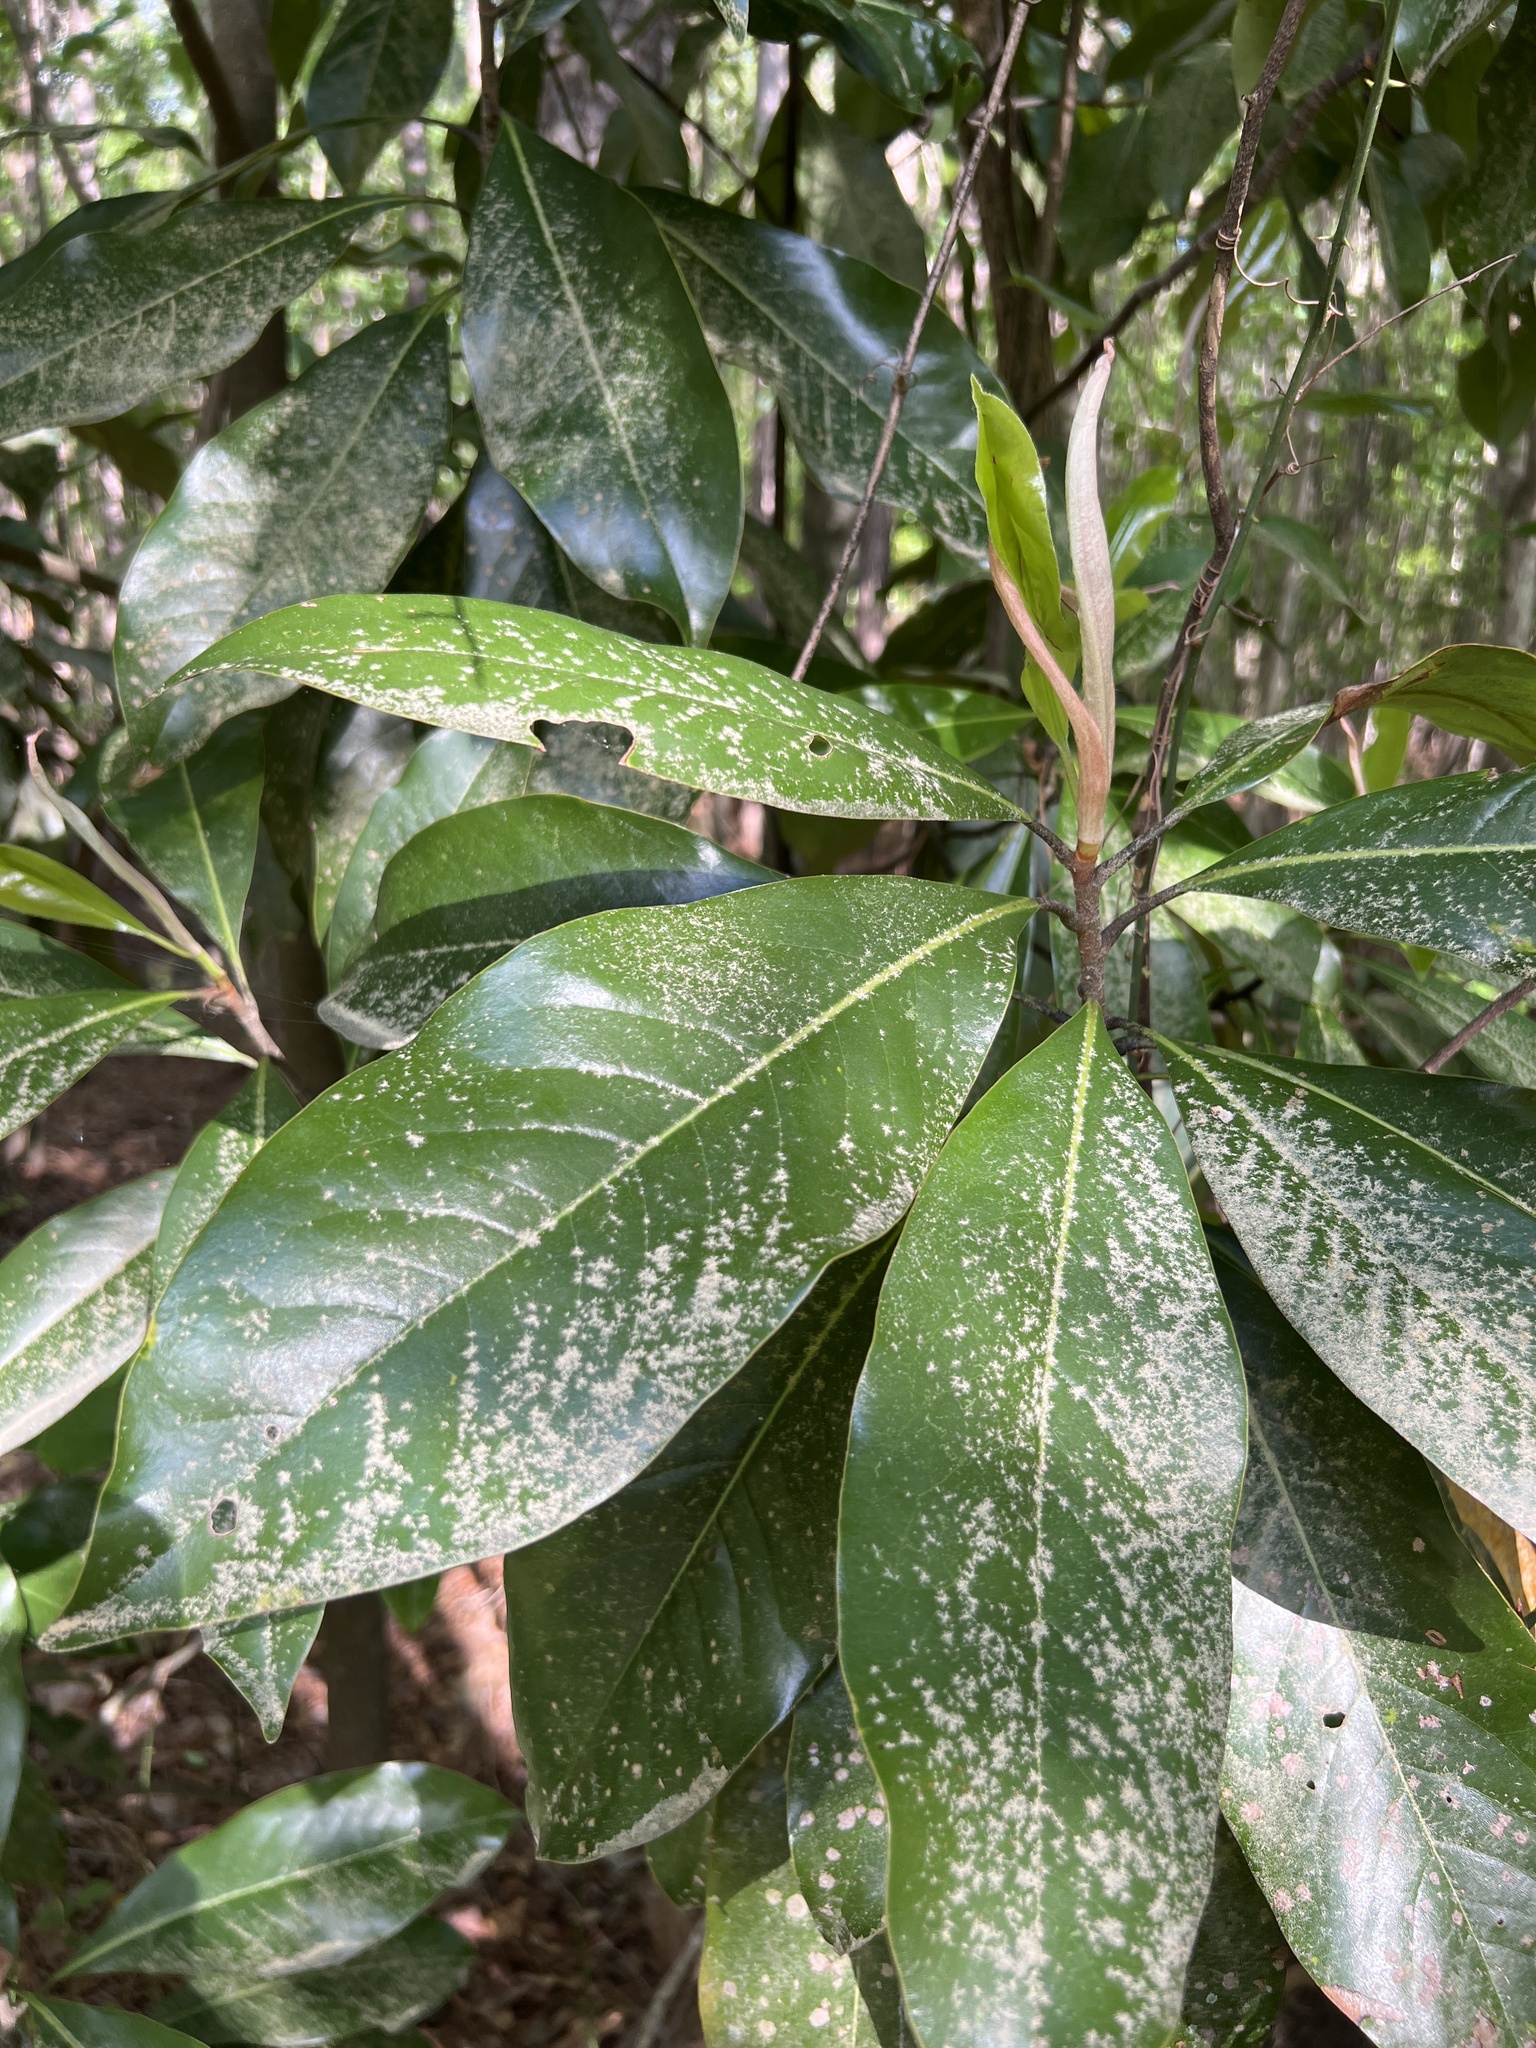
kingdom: Plantae
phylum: Tracheophyta
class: Magnoliopsida
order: Magnoliales
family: Magnoliaceae
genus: Magnolia
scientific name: Magnolia grandiflora
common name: Southern magnolia
